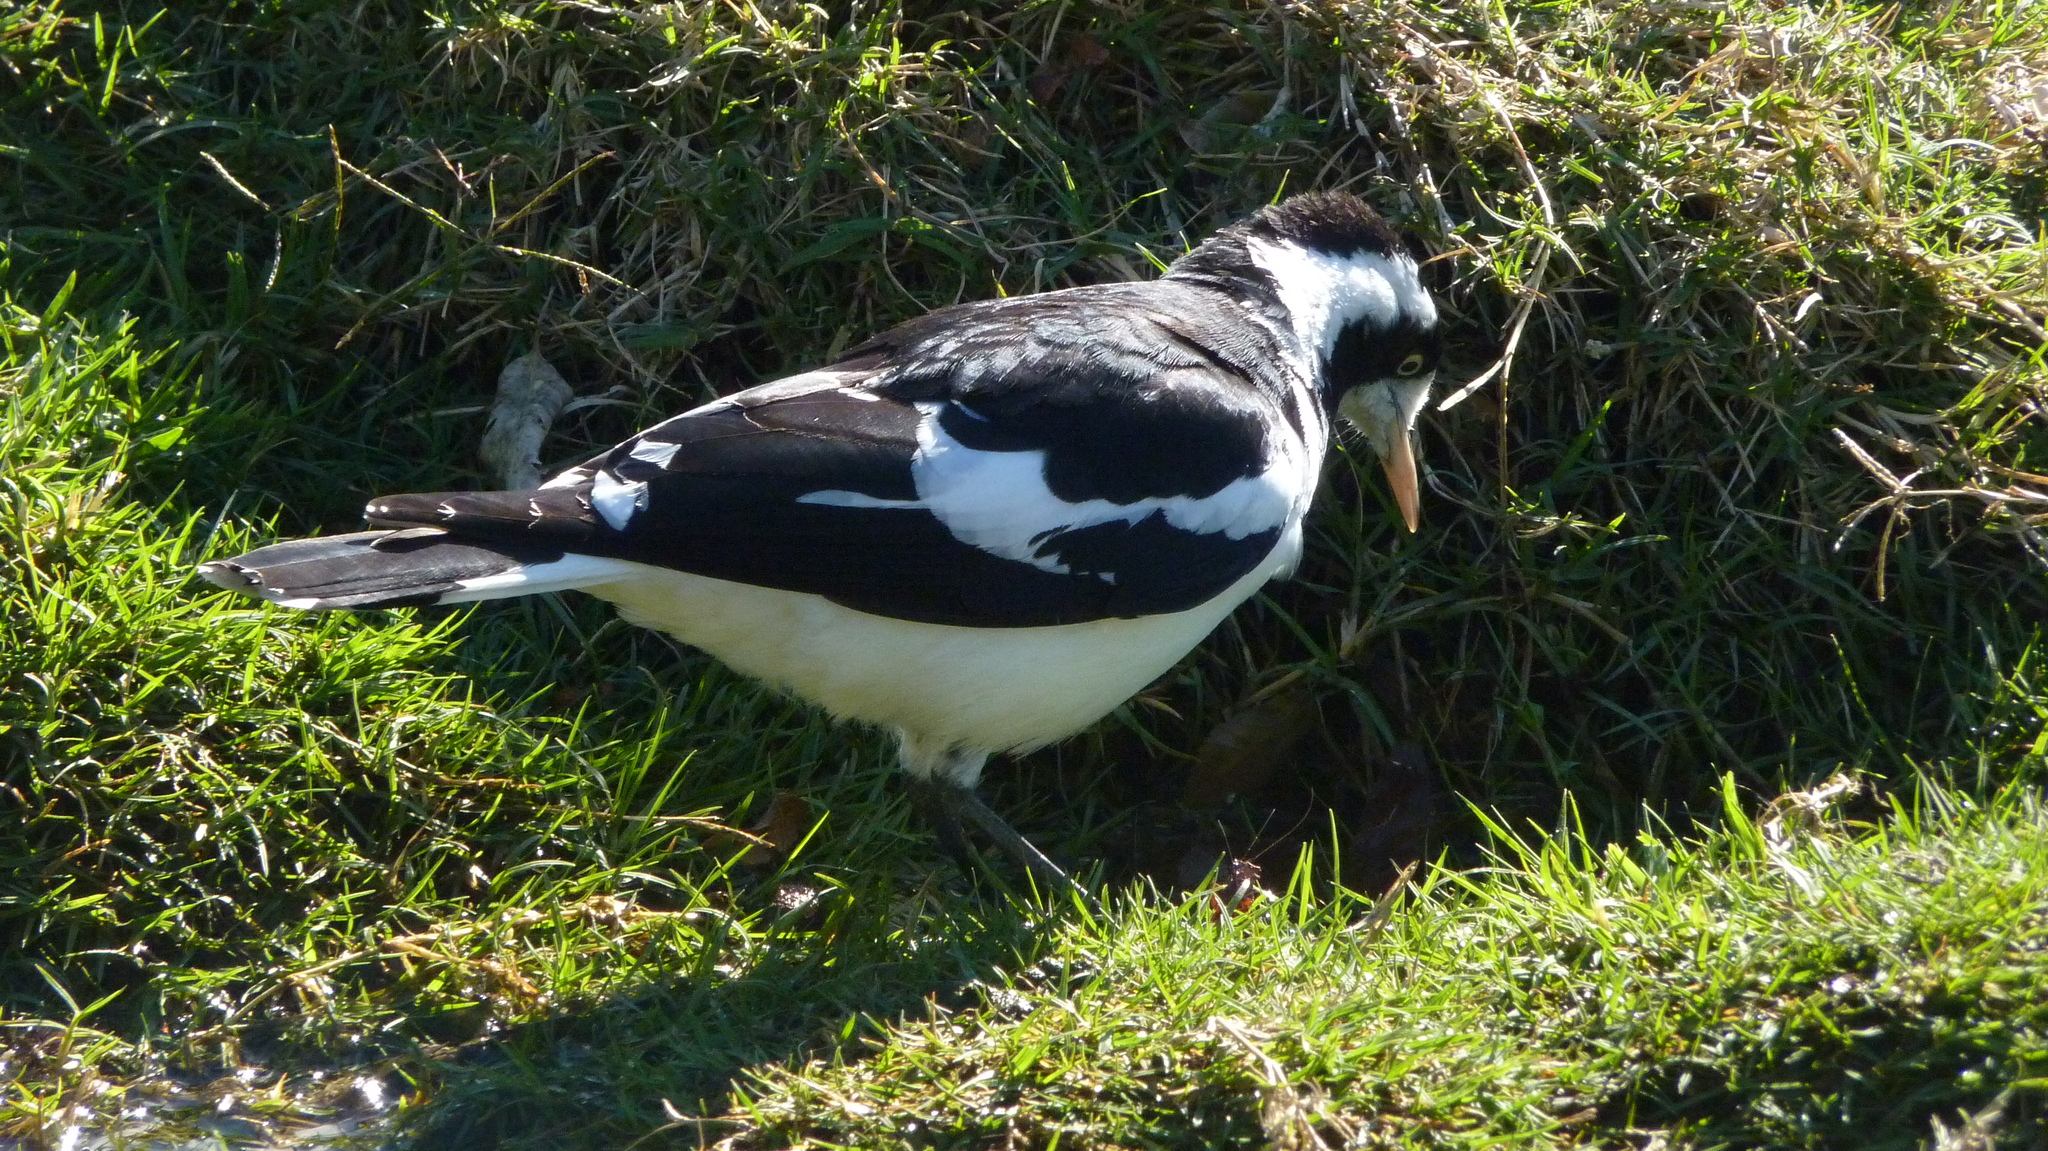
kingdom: Animalia
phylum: Chordata
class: Aves
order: Passeriformes
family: Monarchidae
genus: Grallina
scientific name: Grallina cyanoleuca
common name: Magpie-lark
